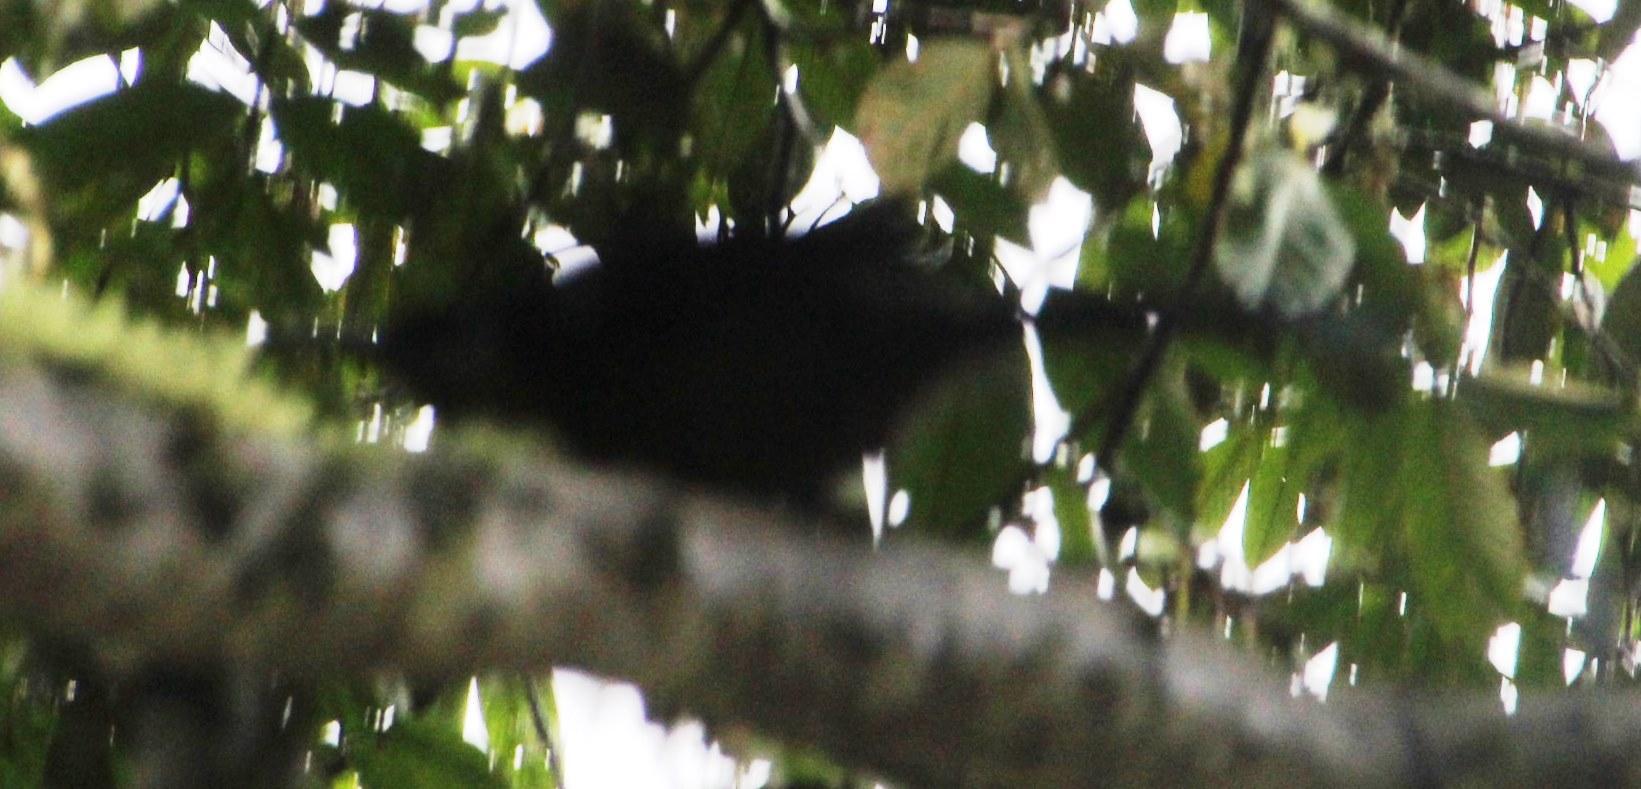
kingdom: Animalia
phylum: Chordata
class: Aves
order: Coraciiformes
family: Momotidae
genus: Momotus
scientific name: Momotus aequatorialis
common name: Andean motmot
